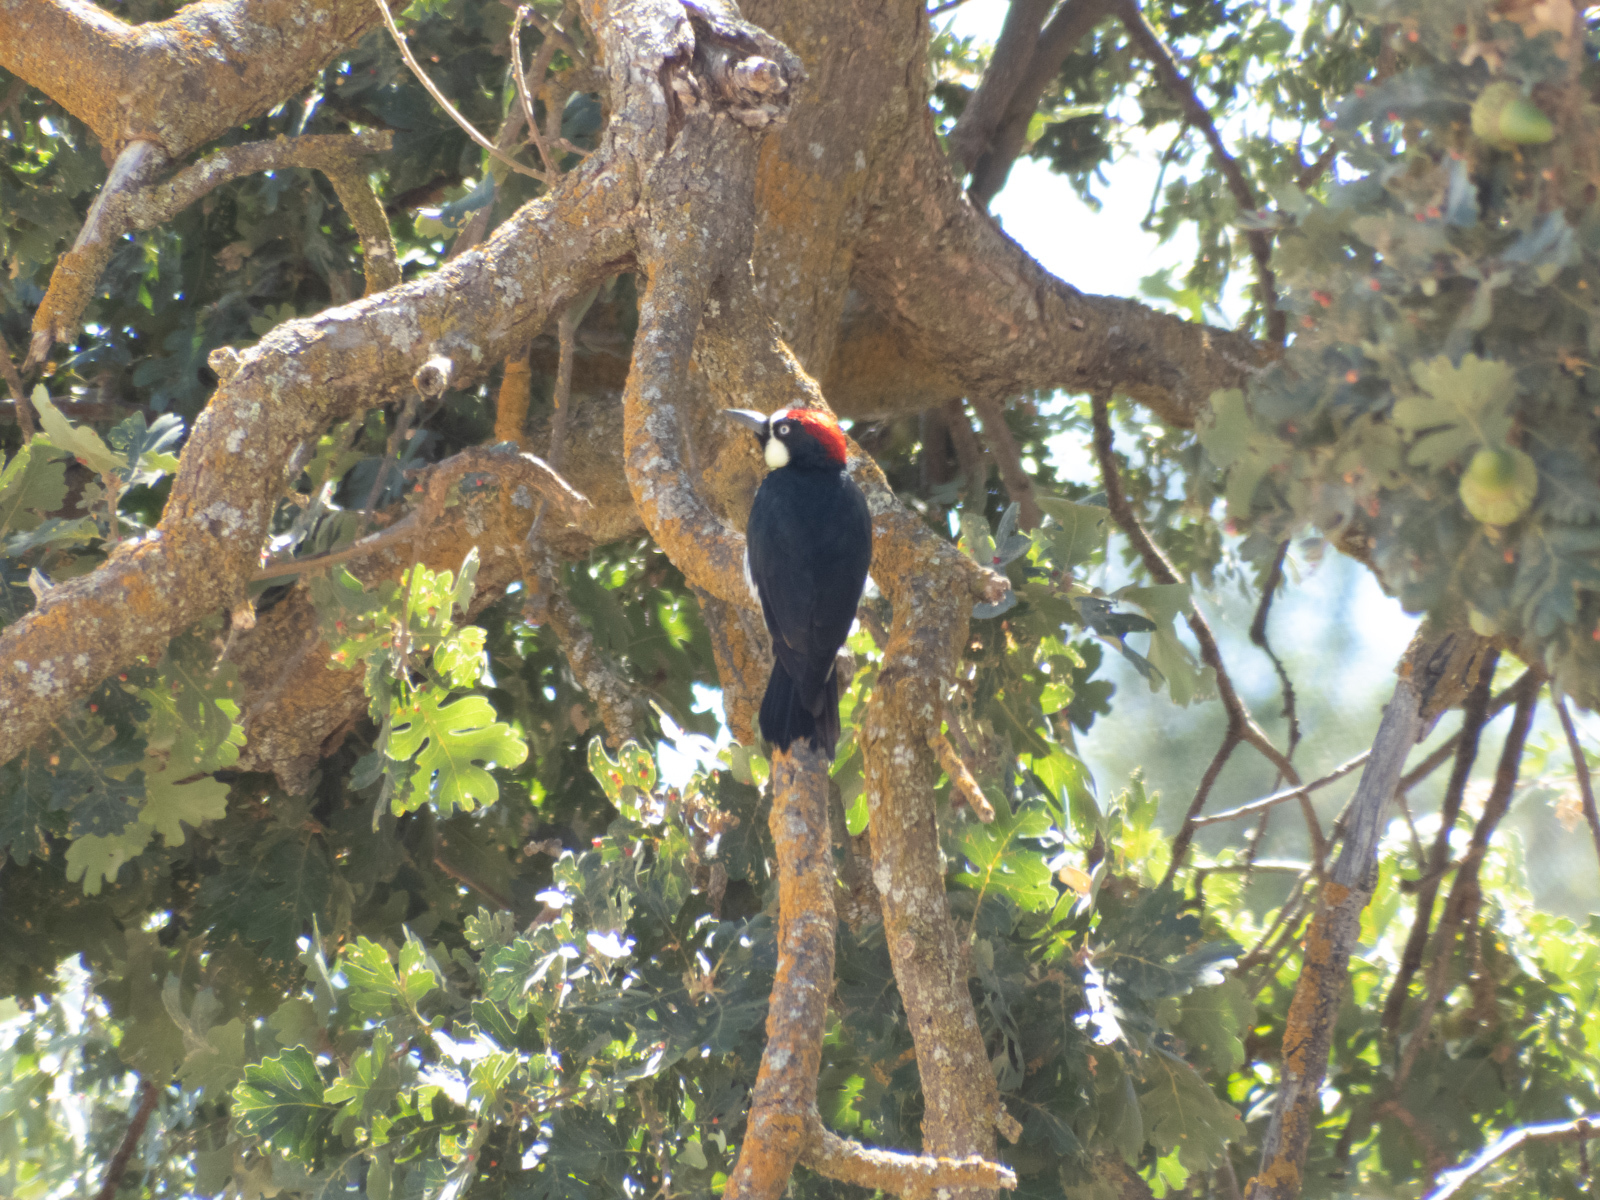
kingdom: Animalia
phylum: Chordata
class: Aves
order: Piciformes
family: Picidae
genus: Melanerpes
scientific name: Melanerpes formicivorus
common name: Acorn woodpecker
